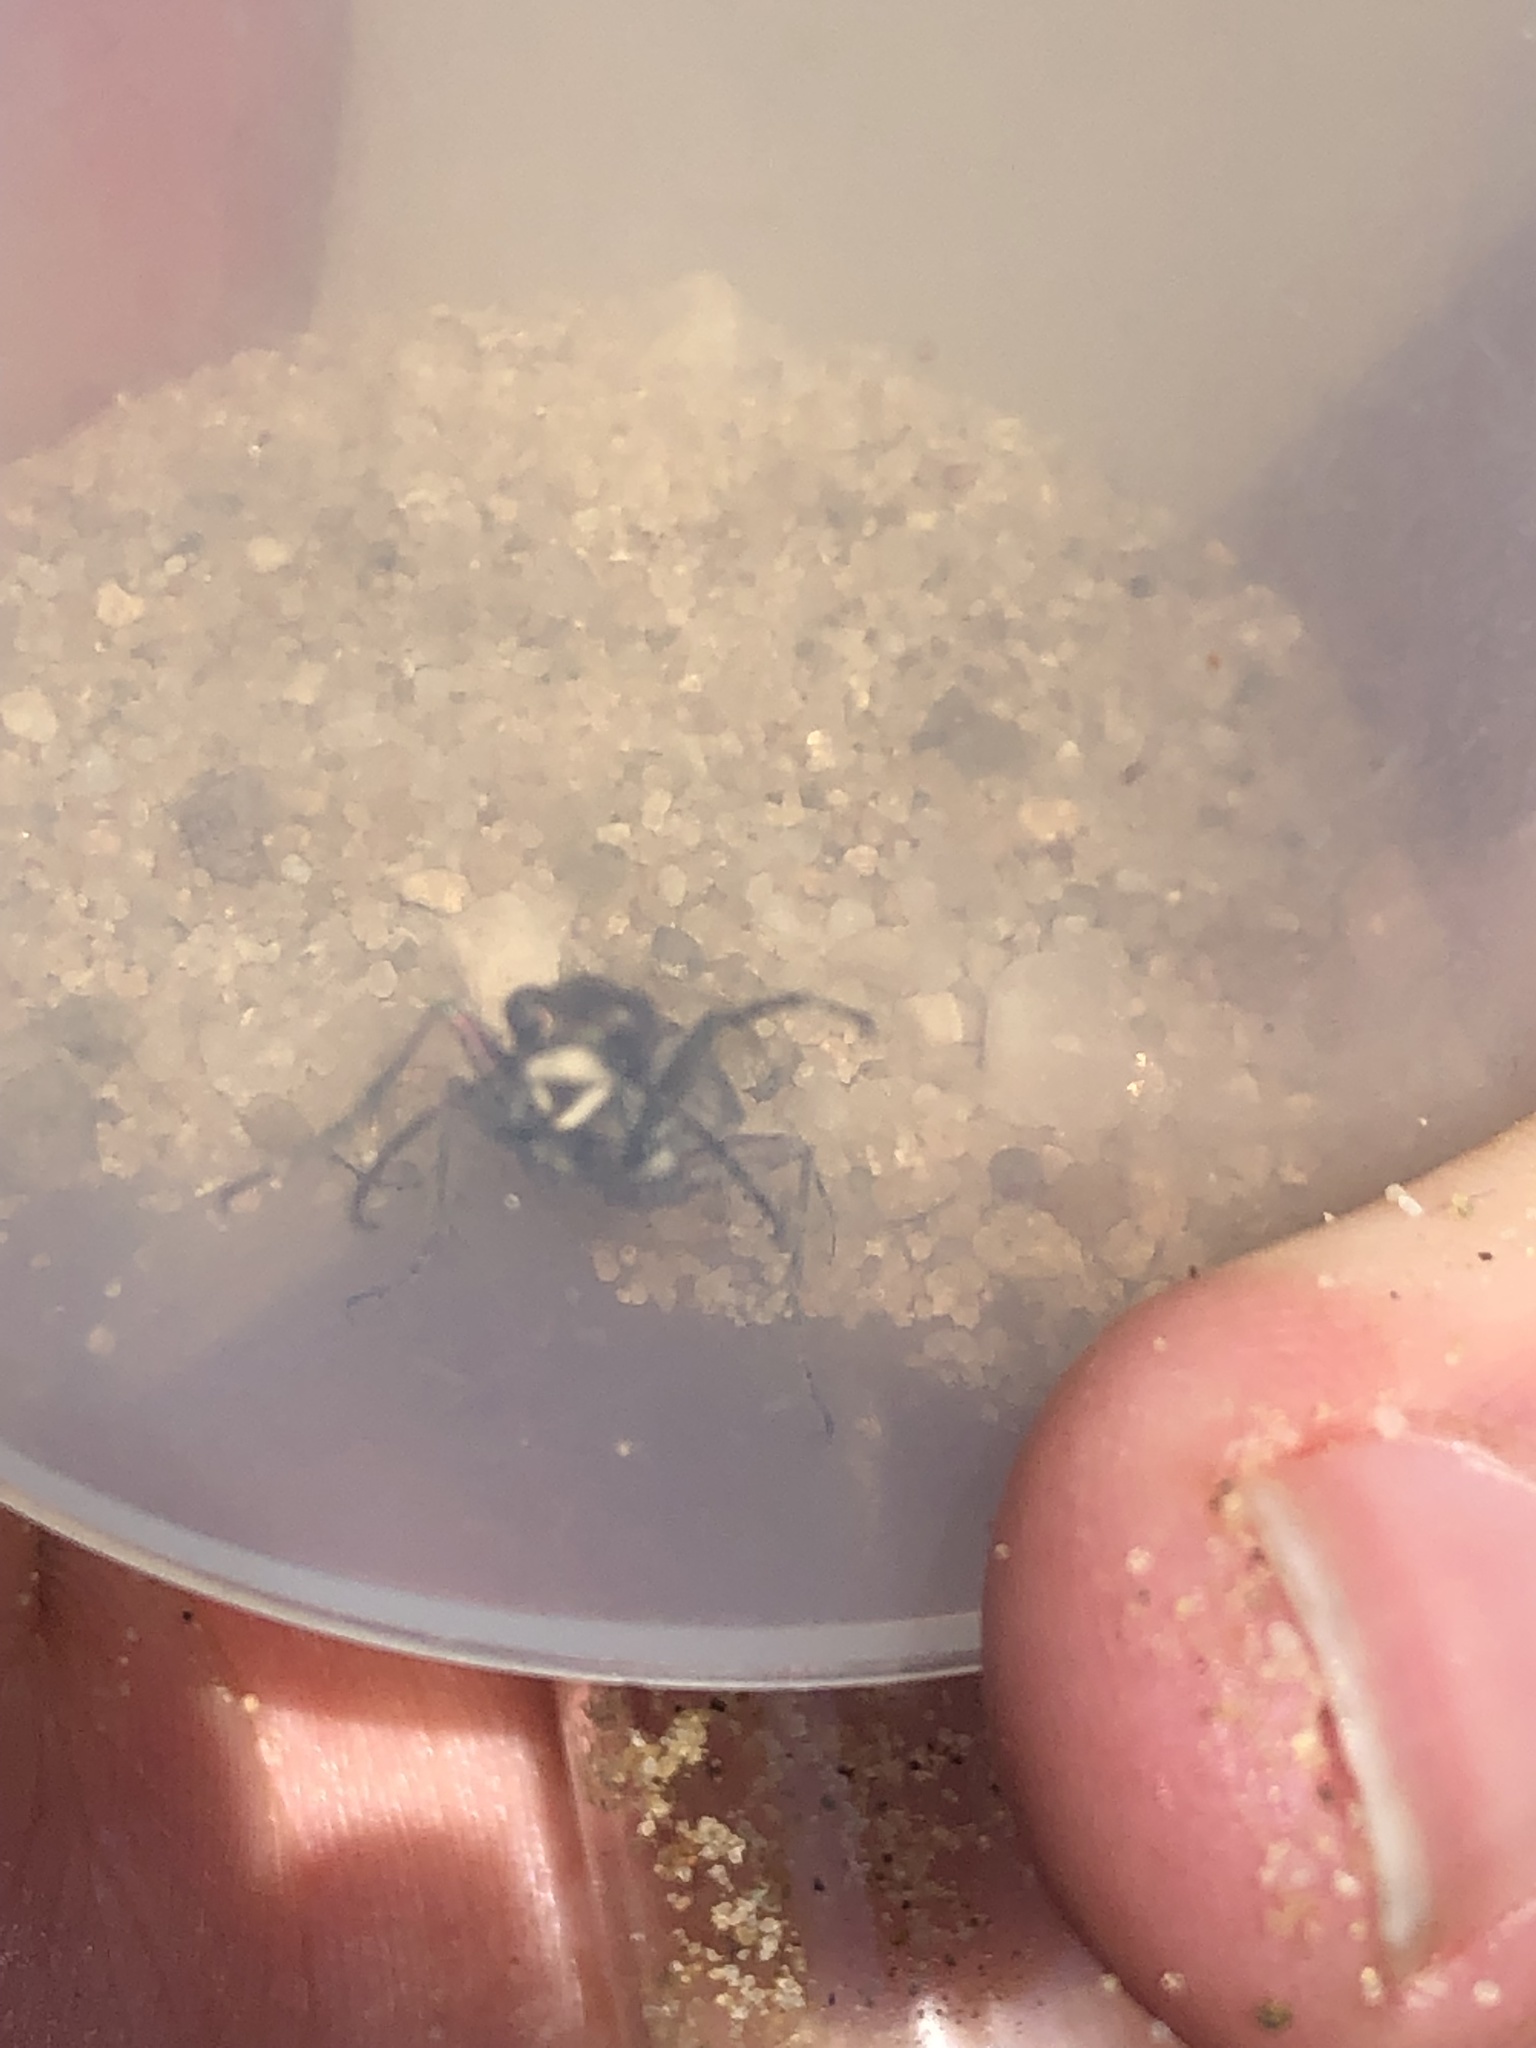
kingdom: Animalia
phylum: Arthropoda
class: Insecta
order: Coleoptera
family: Carabidae
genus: Cicindela
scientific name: Cicindela hybrida
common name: Northern dune tiger beetle
